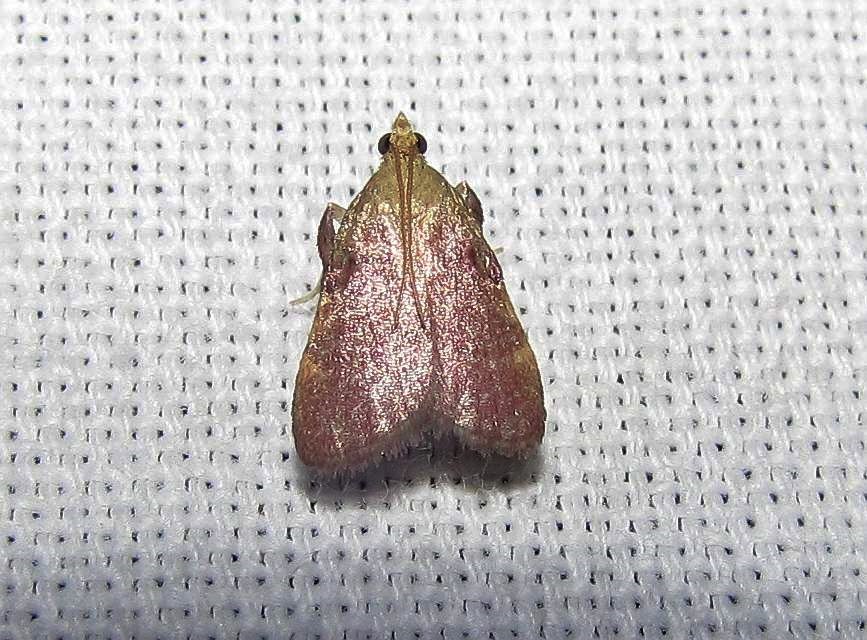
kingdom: Animalia
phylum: Arthropoda
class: Insecta
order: Lepidoptera
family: Pyralidae
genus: Condylolomia
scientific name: Condylolomia participialis
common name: Drab condylolomia moth
